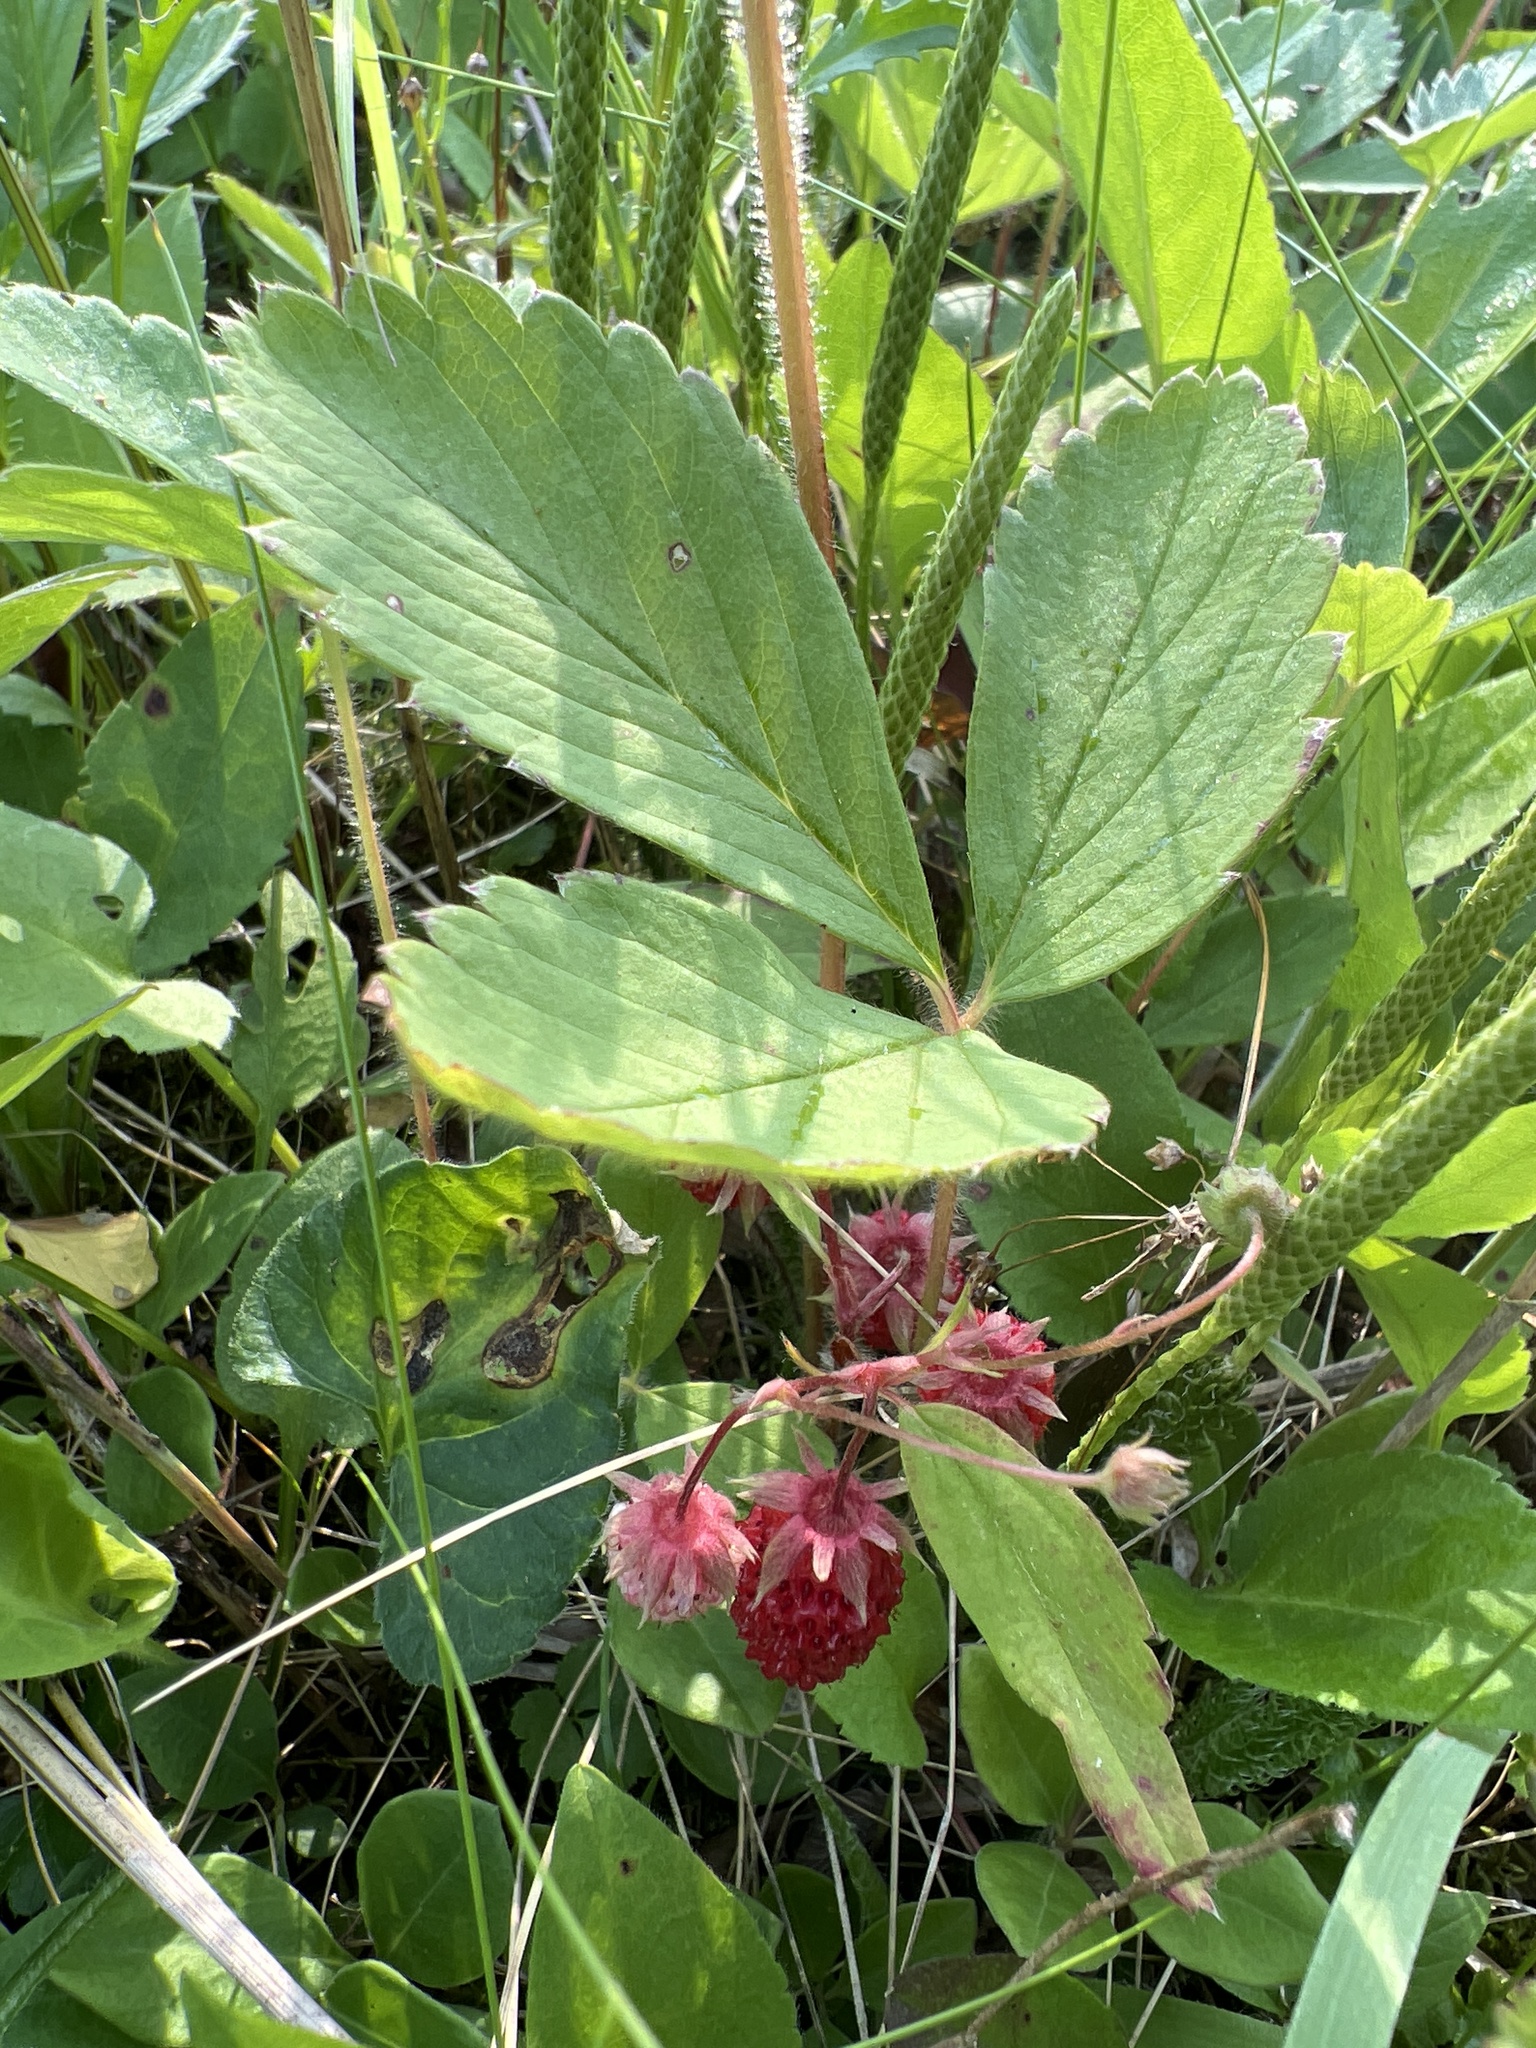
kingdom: Plantae
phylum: Tracheophyta
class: Magnoliopsida
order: Rosales
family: Rosaceae
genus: Fragaria
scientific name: Fragaria virginiana
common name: Thickleaved wild strawberry
